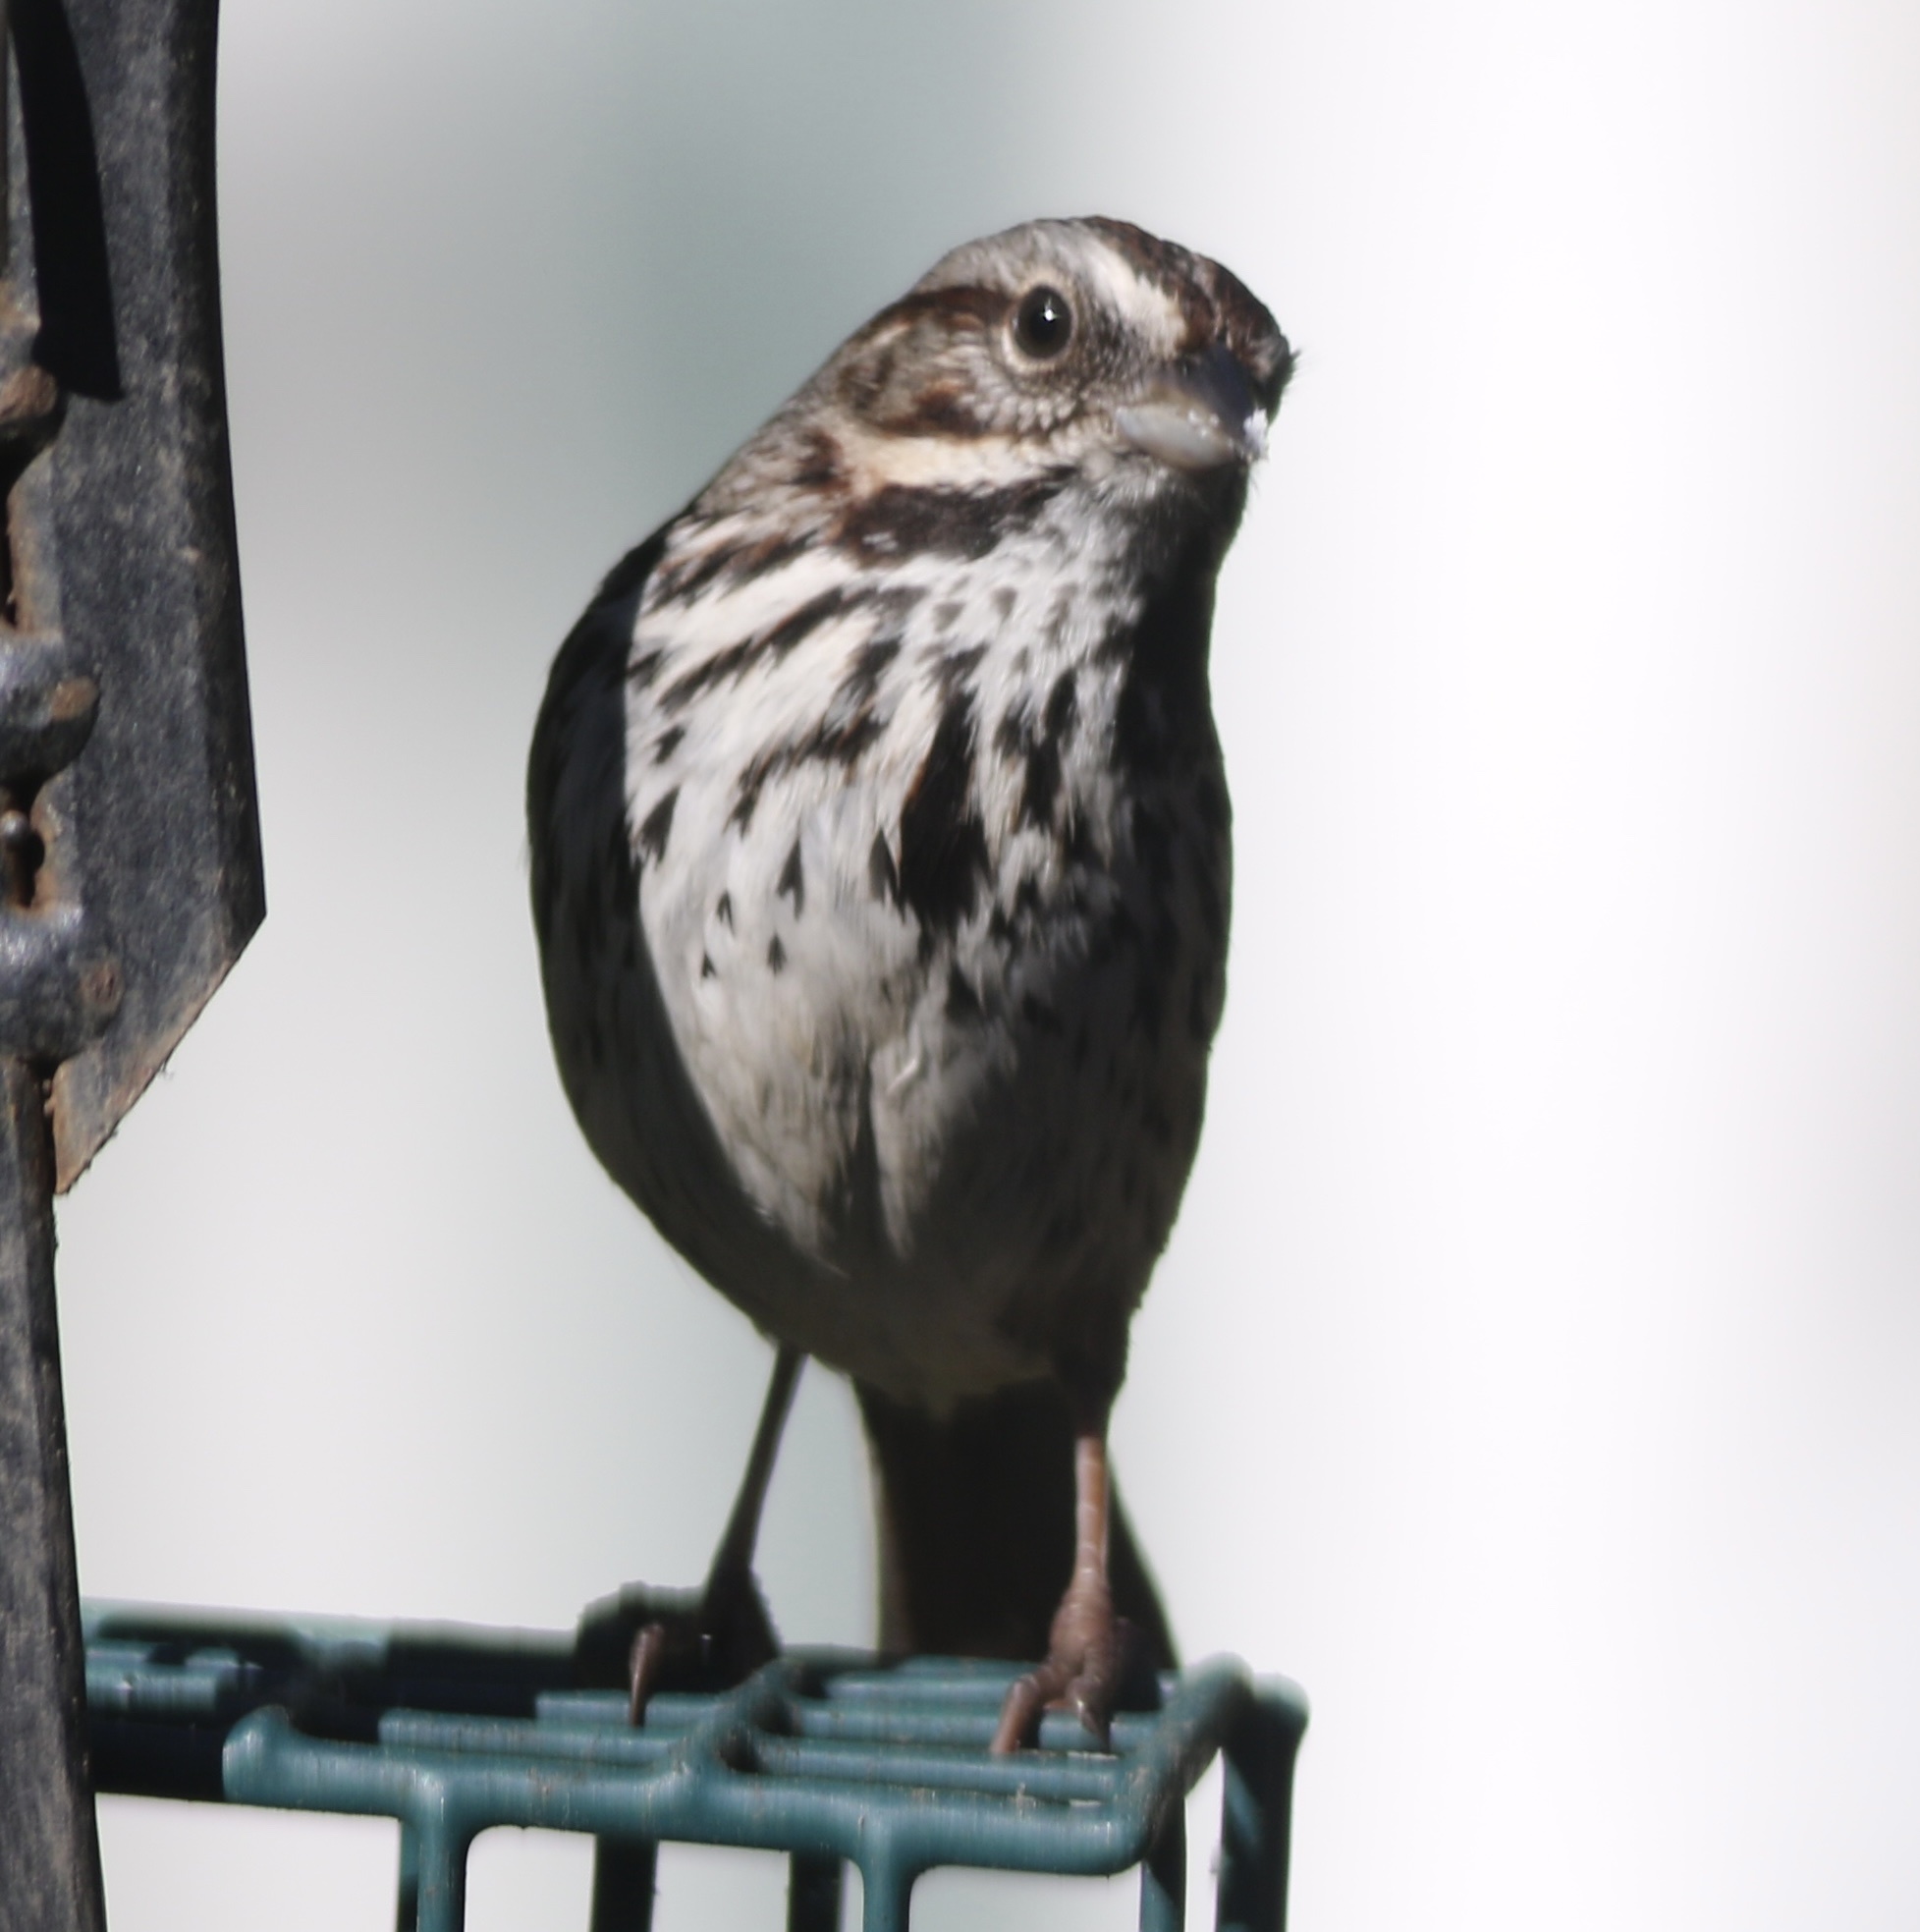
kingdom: Animalia
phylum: Chordata
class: Aves
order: Passeriformes
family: Passerellidae
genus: Melospiza
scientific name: Melospiza melodia
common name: Song sparrow
